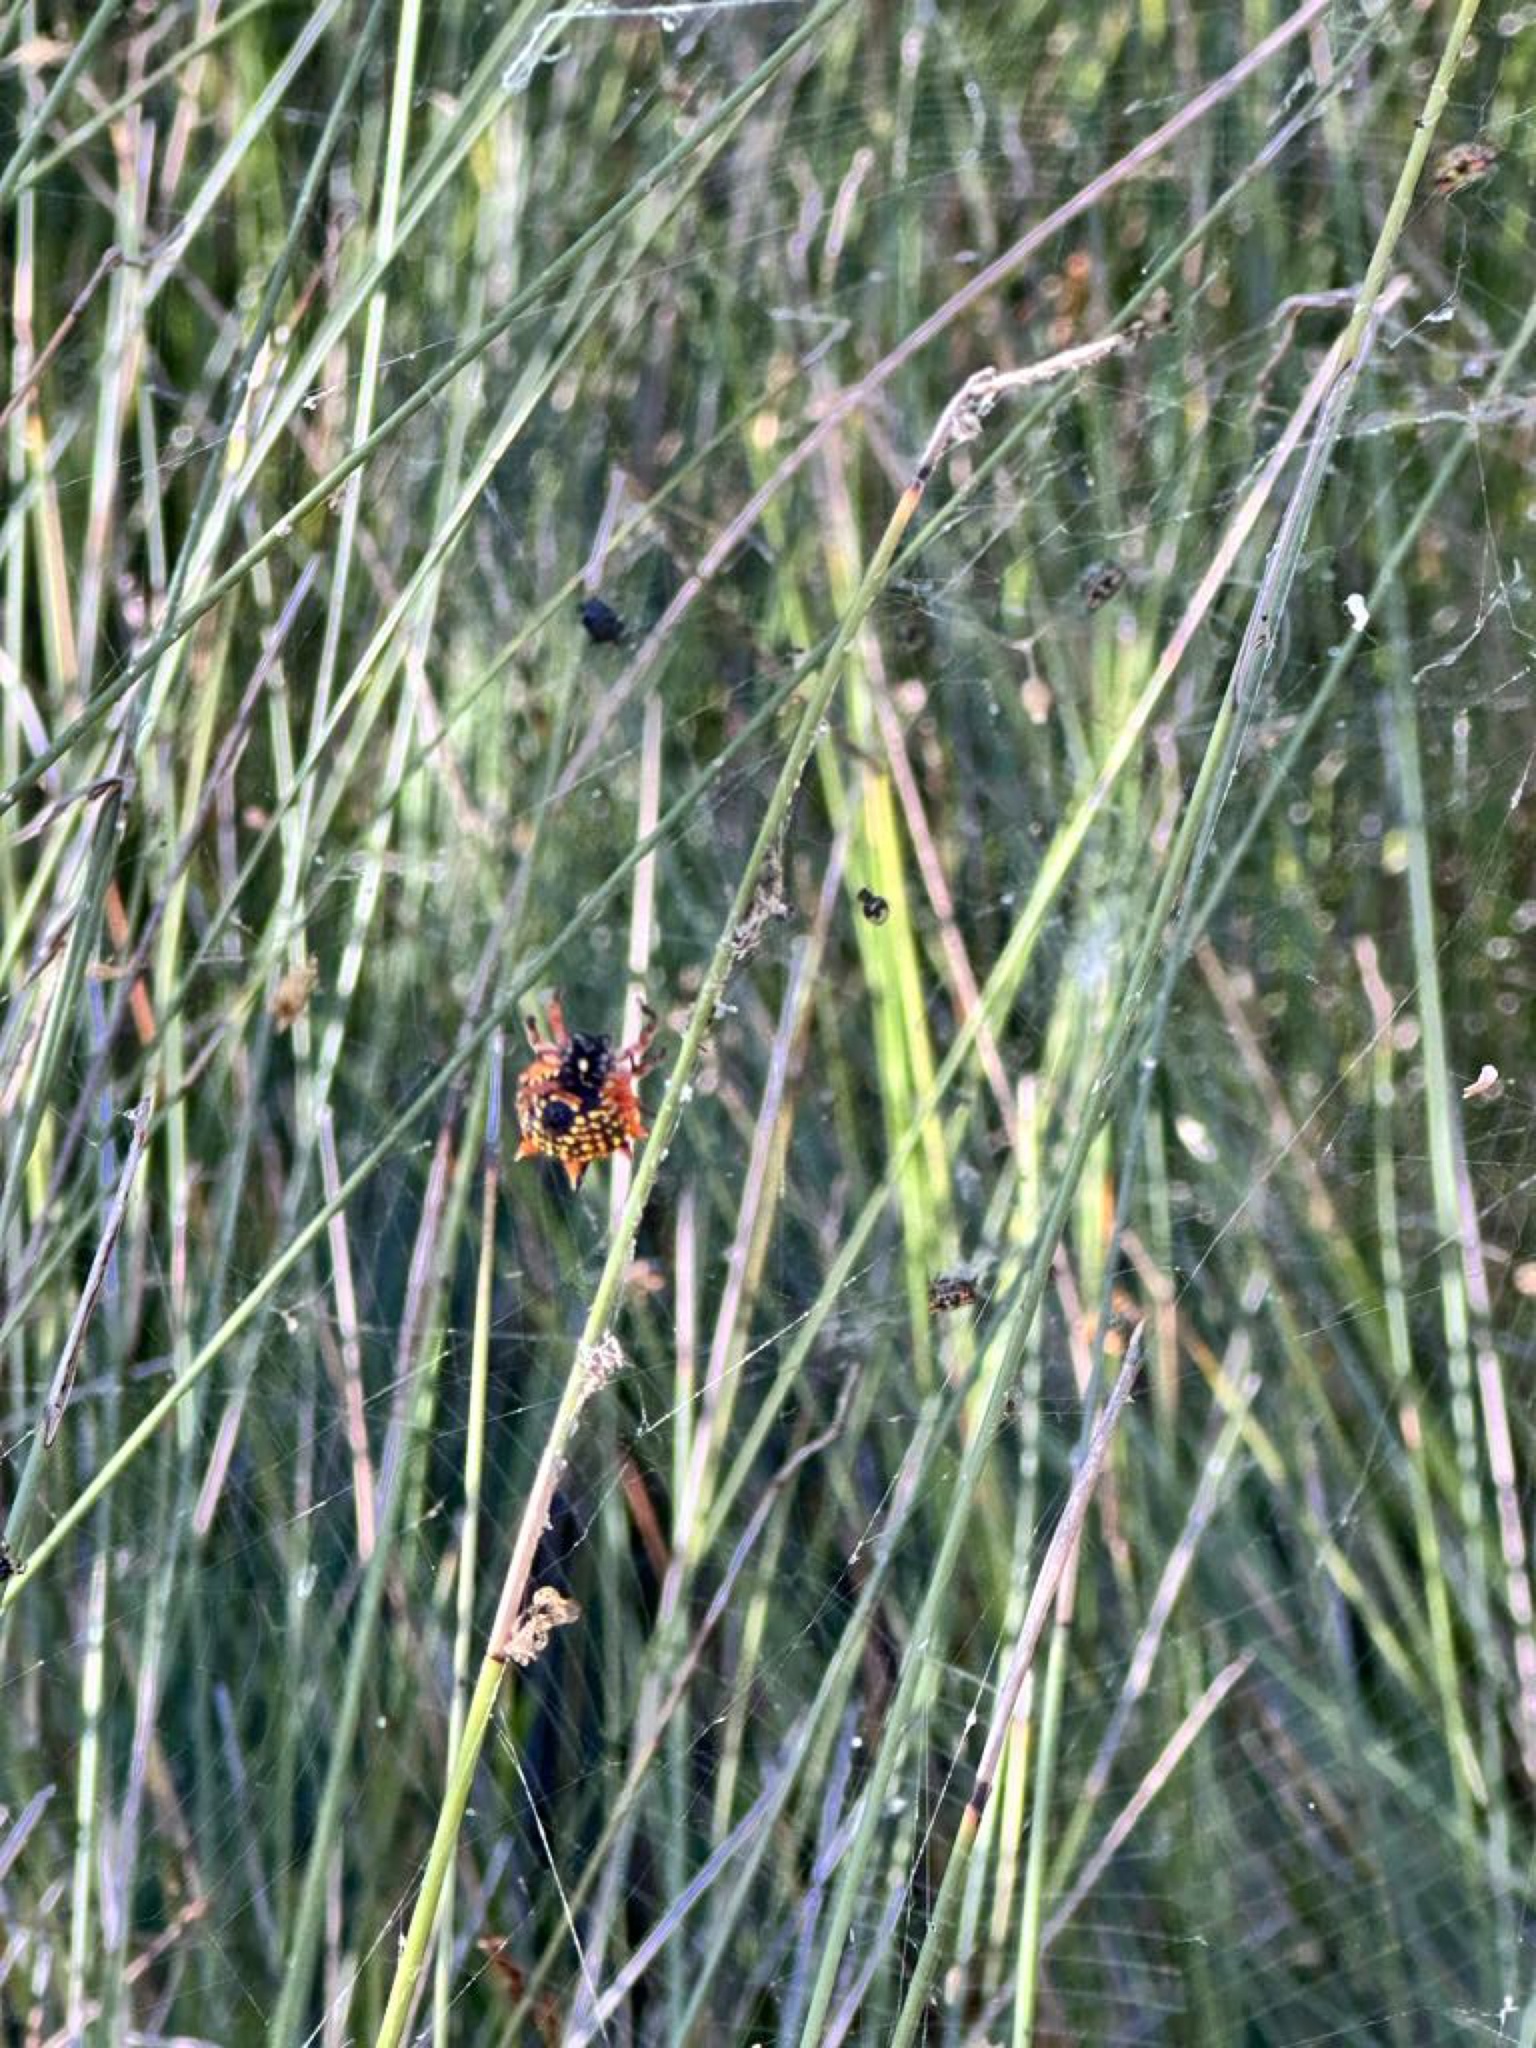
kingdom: Animalia
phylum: Arthropoda
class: Arachnida
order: Araneae
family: Araneidae
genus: Austracantha
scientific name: Austracantha minax
